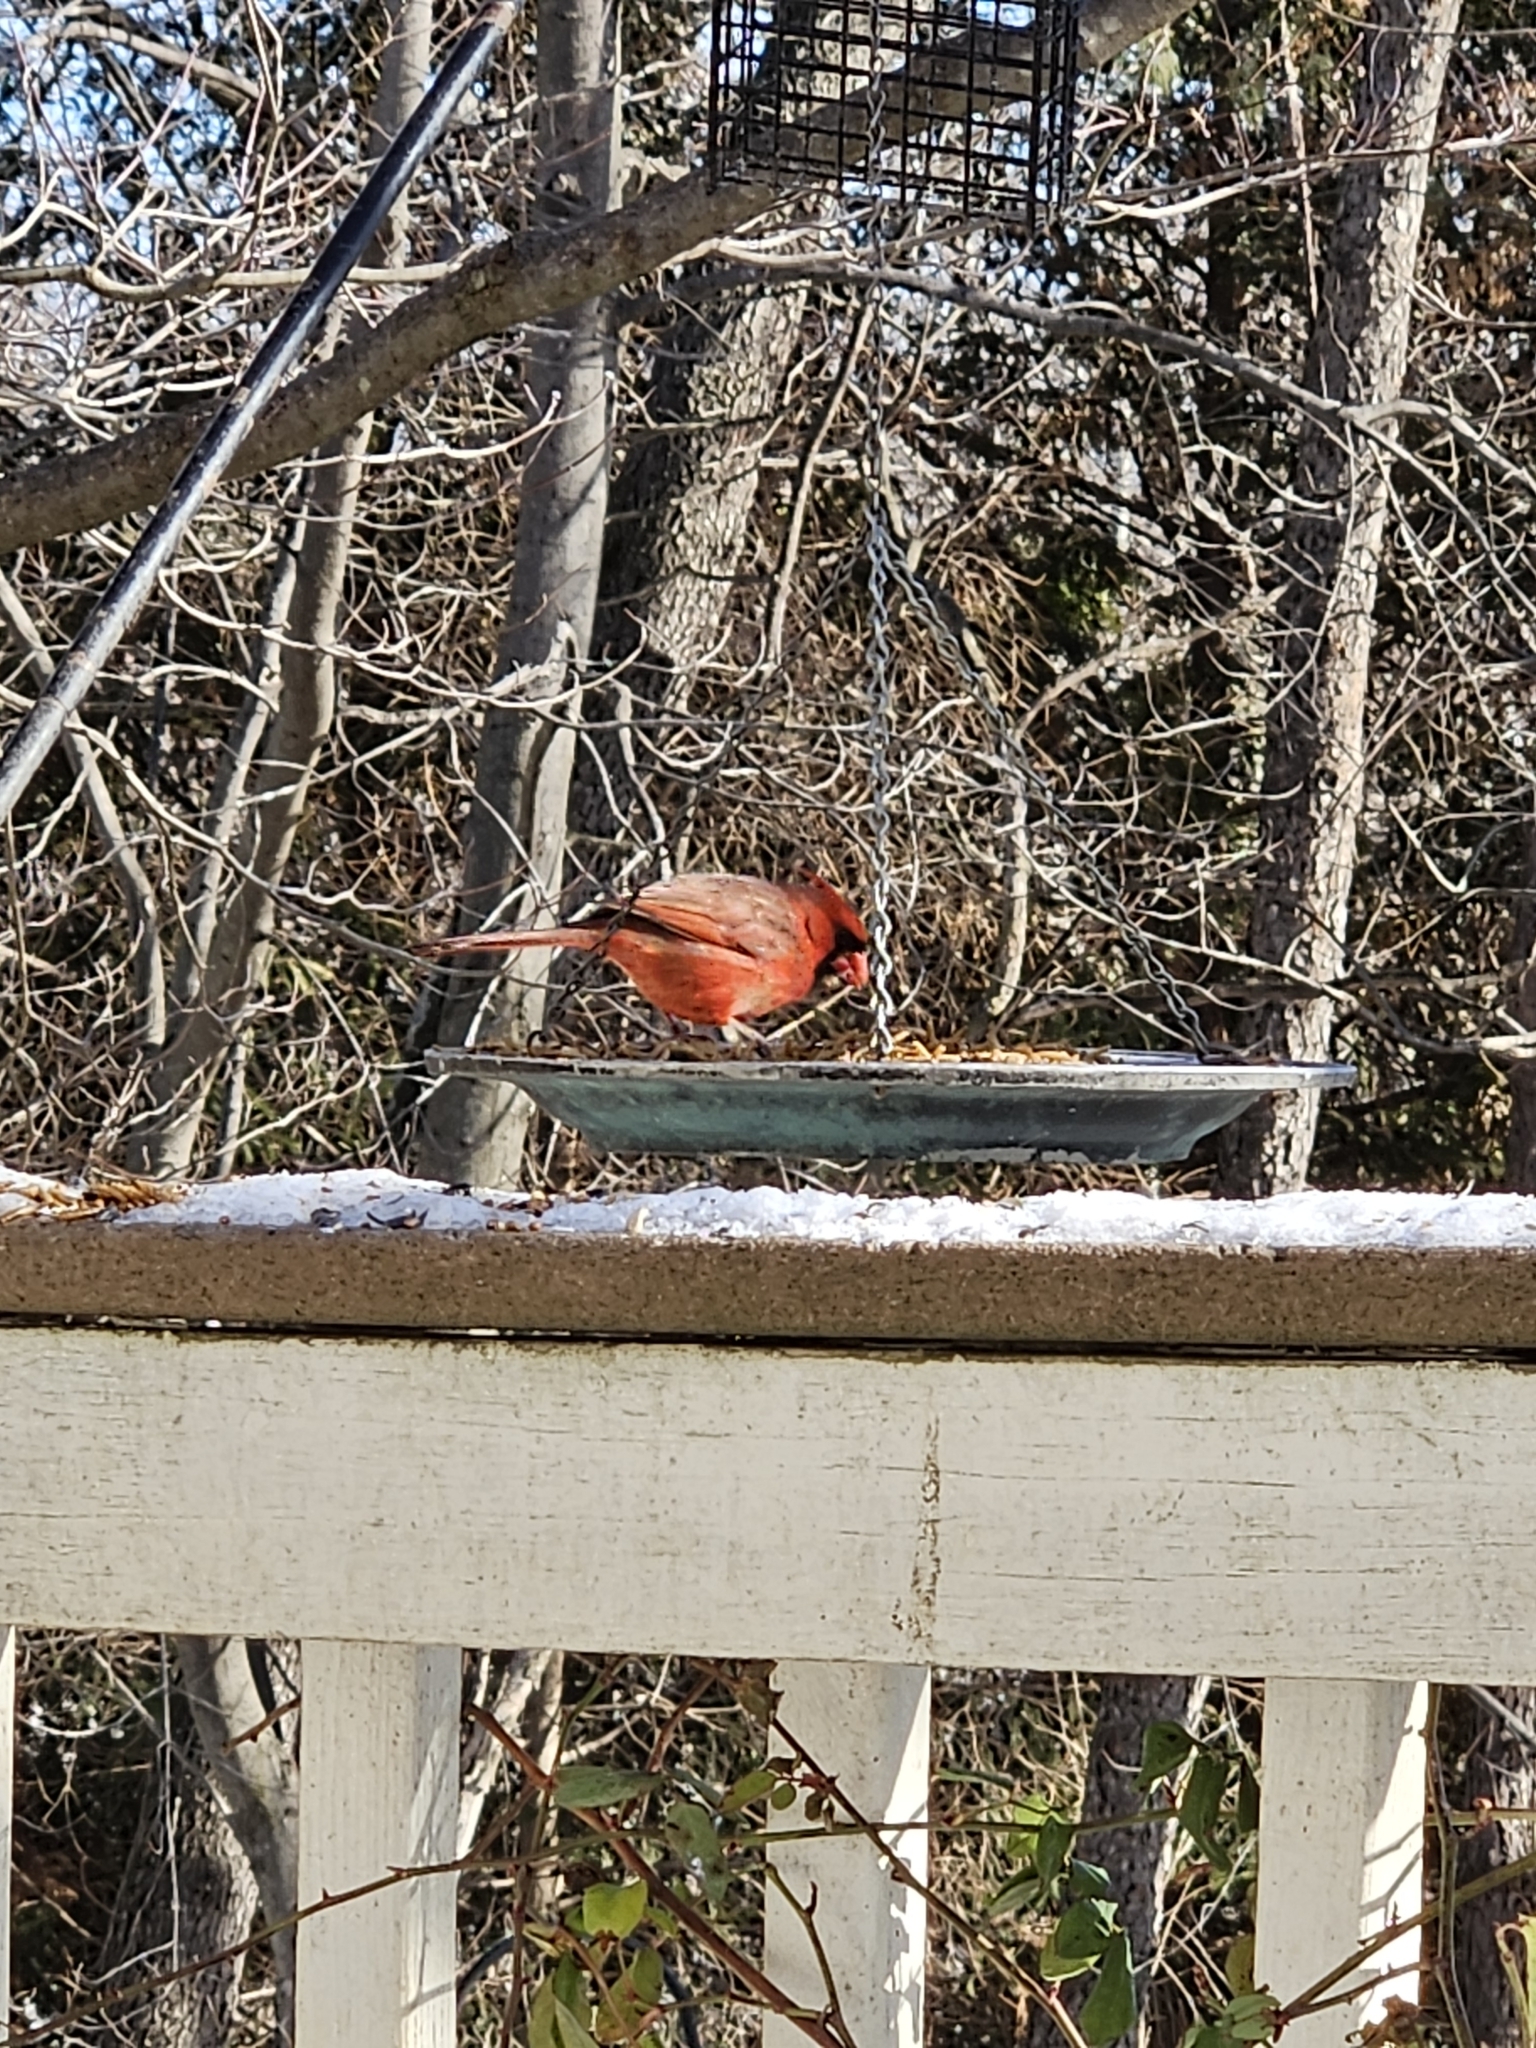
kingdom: Animalia
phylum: Chordata
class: Aves
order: Passeriformes
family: Cardinalidae
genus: Cardinalis
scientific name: Cardinalis cardinalis
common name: Northern cardinal
